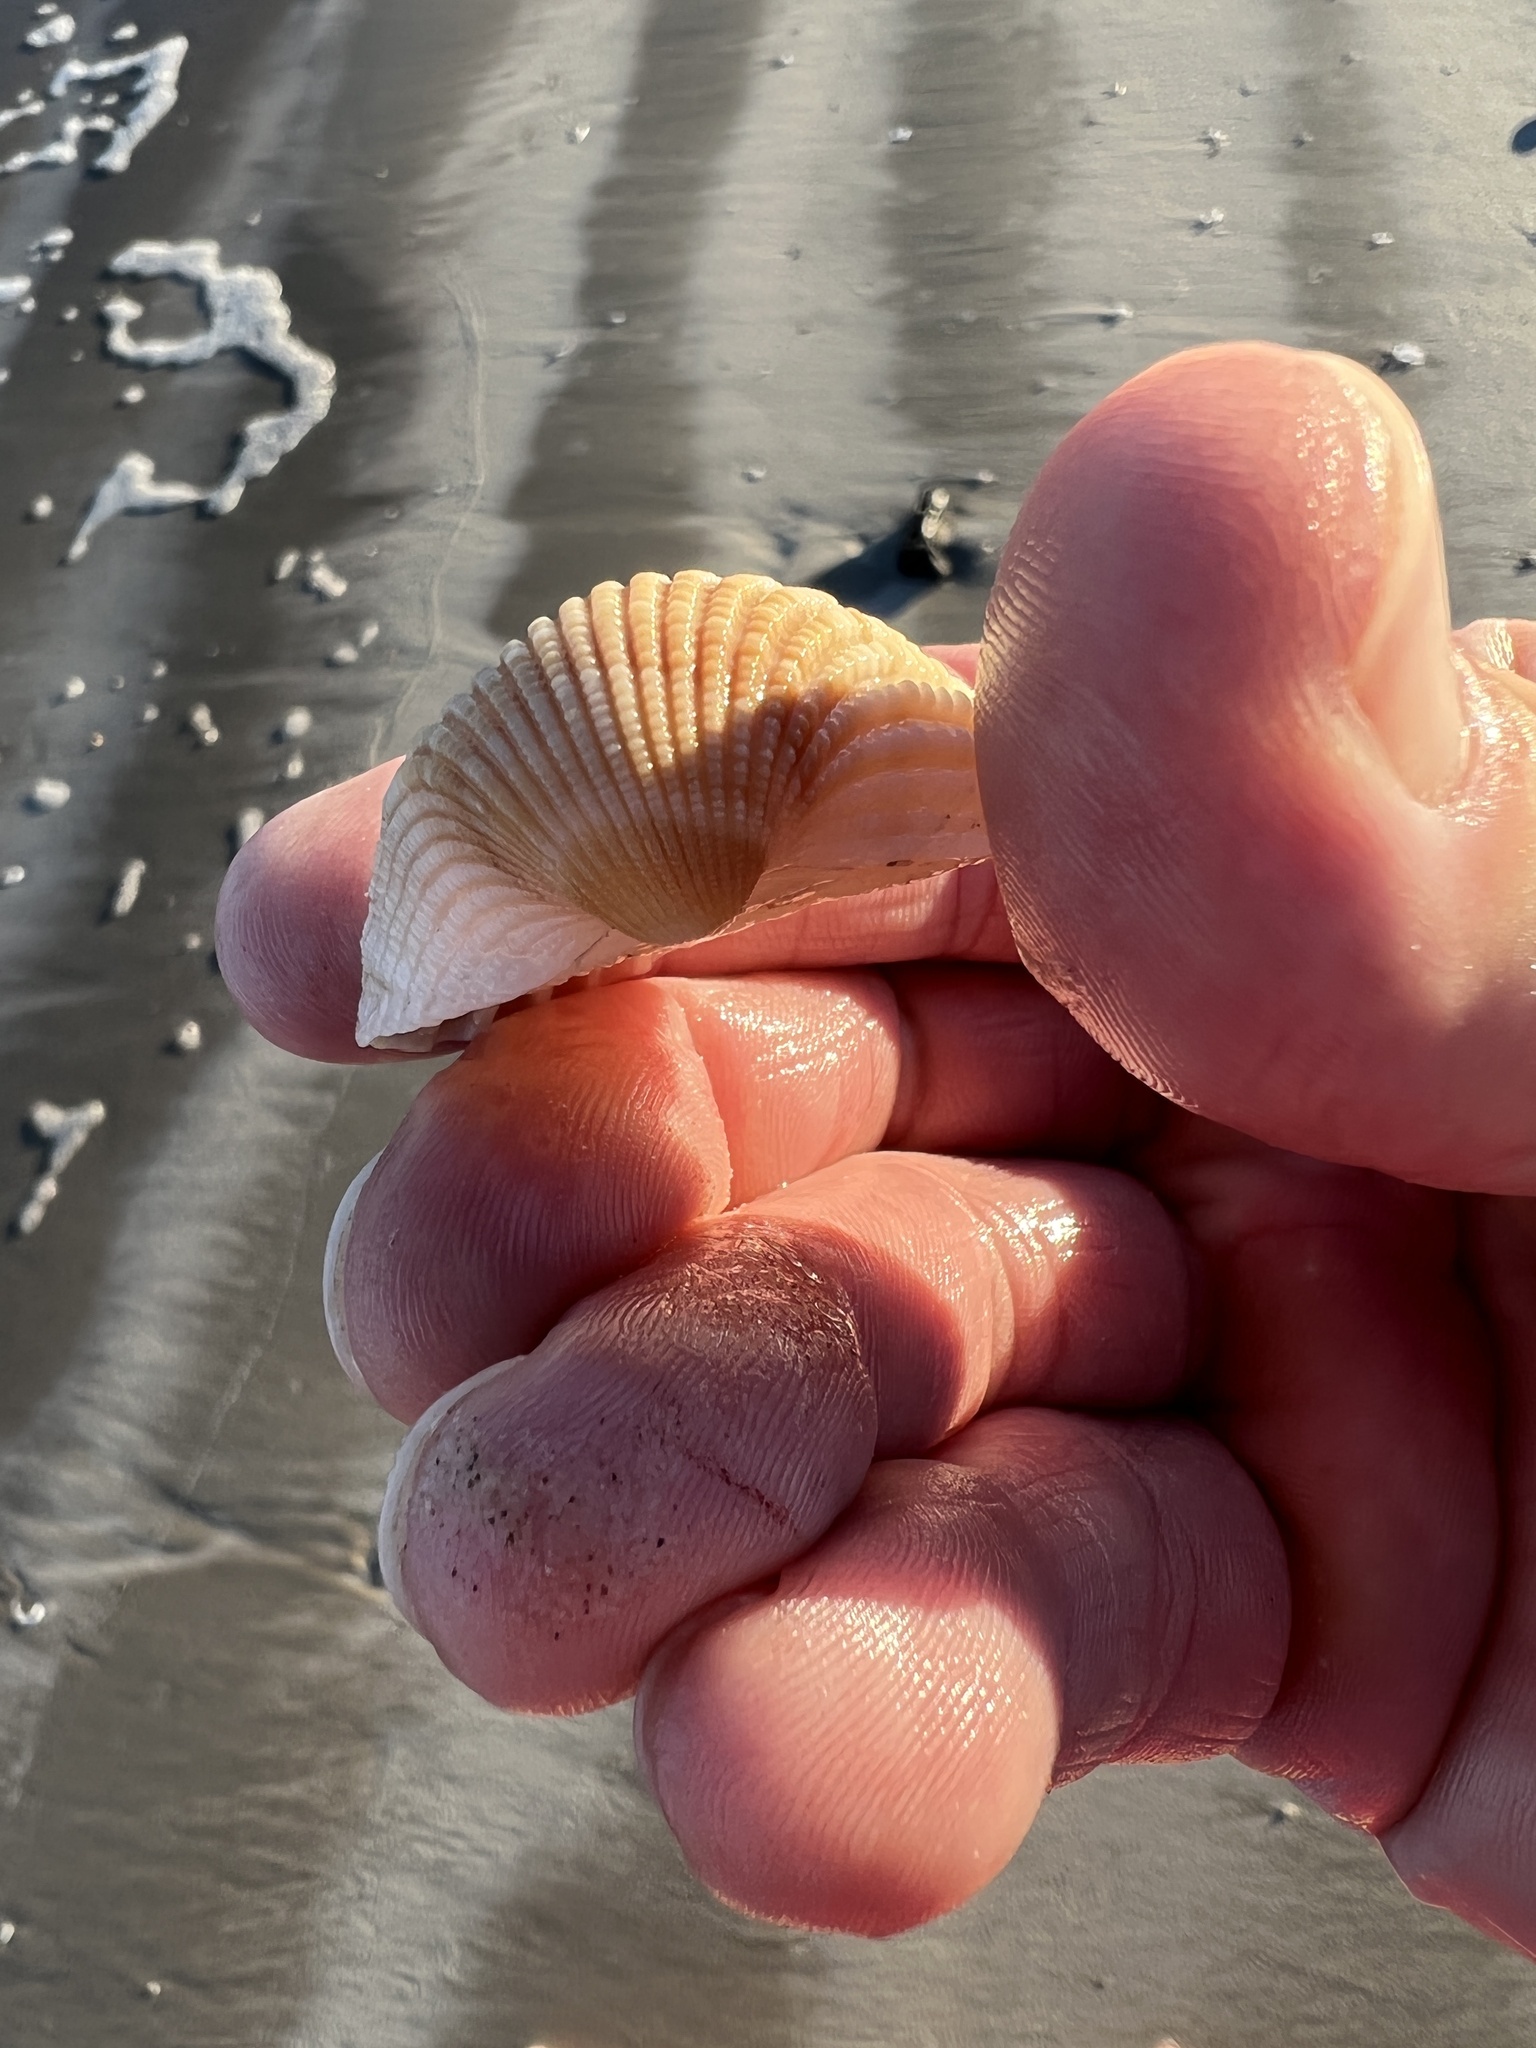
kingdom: Animalia
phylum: Mollusca
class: Bivalvia
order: Arcida
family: Arcidae
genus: Anadara
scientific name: Anadara brasiliana
